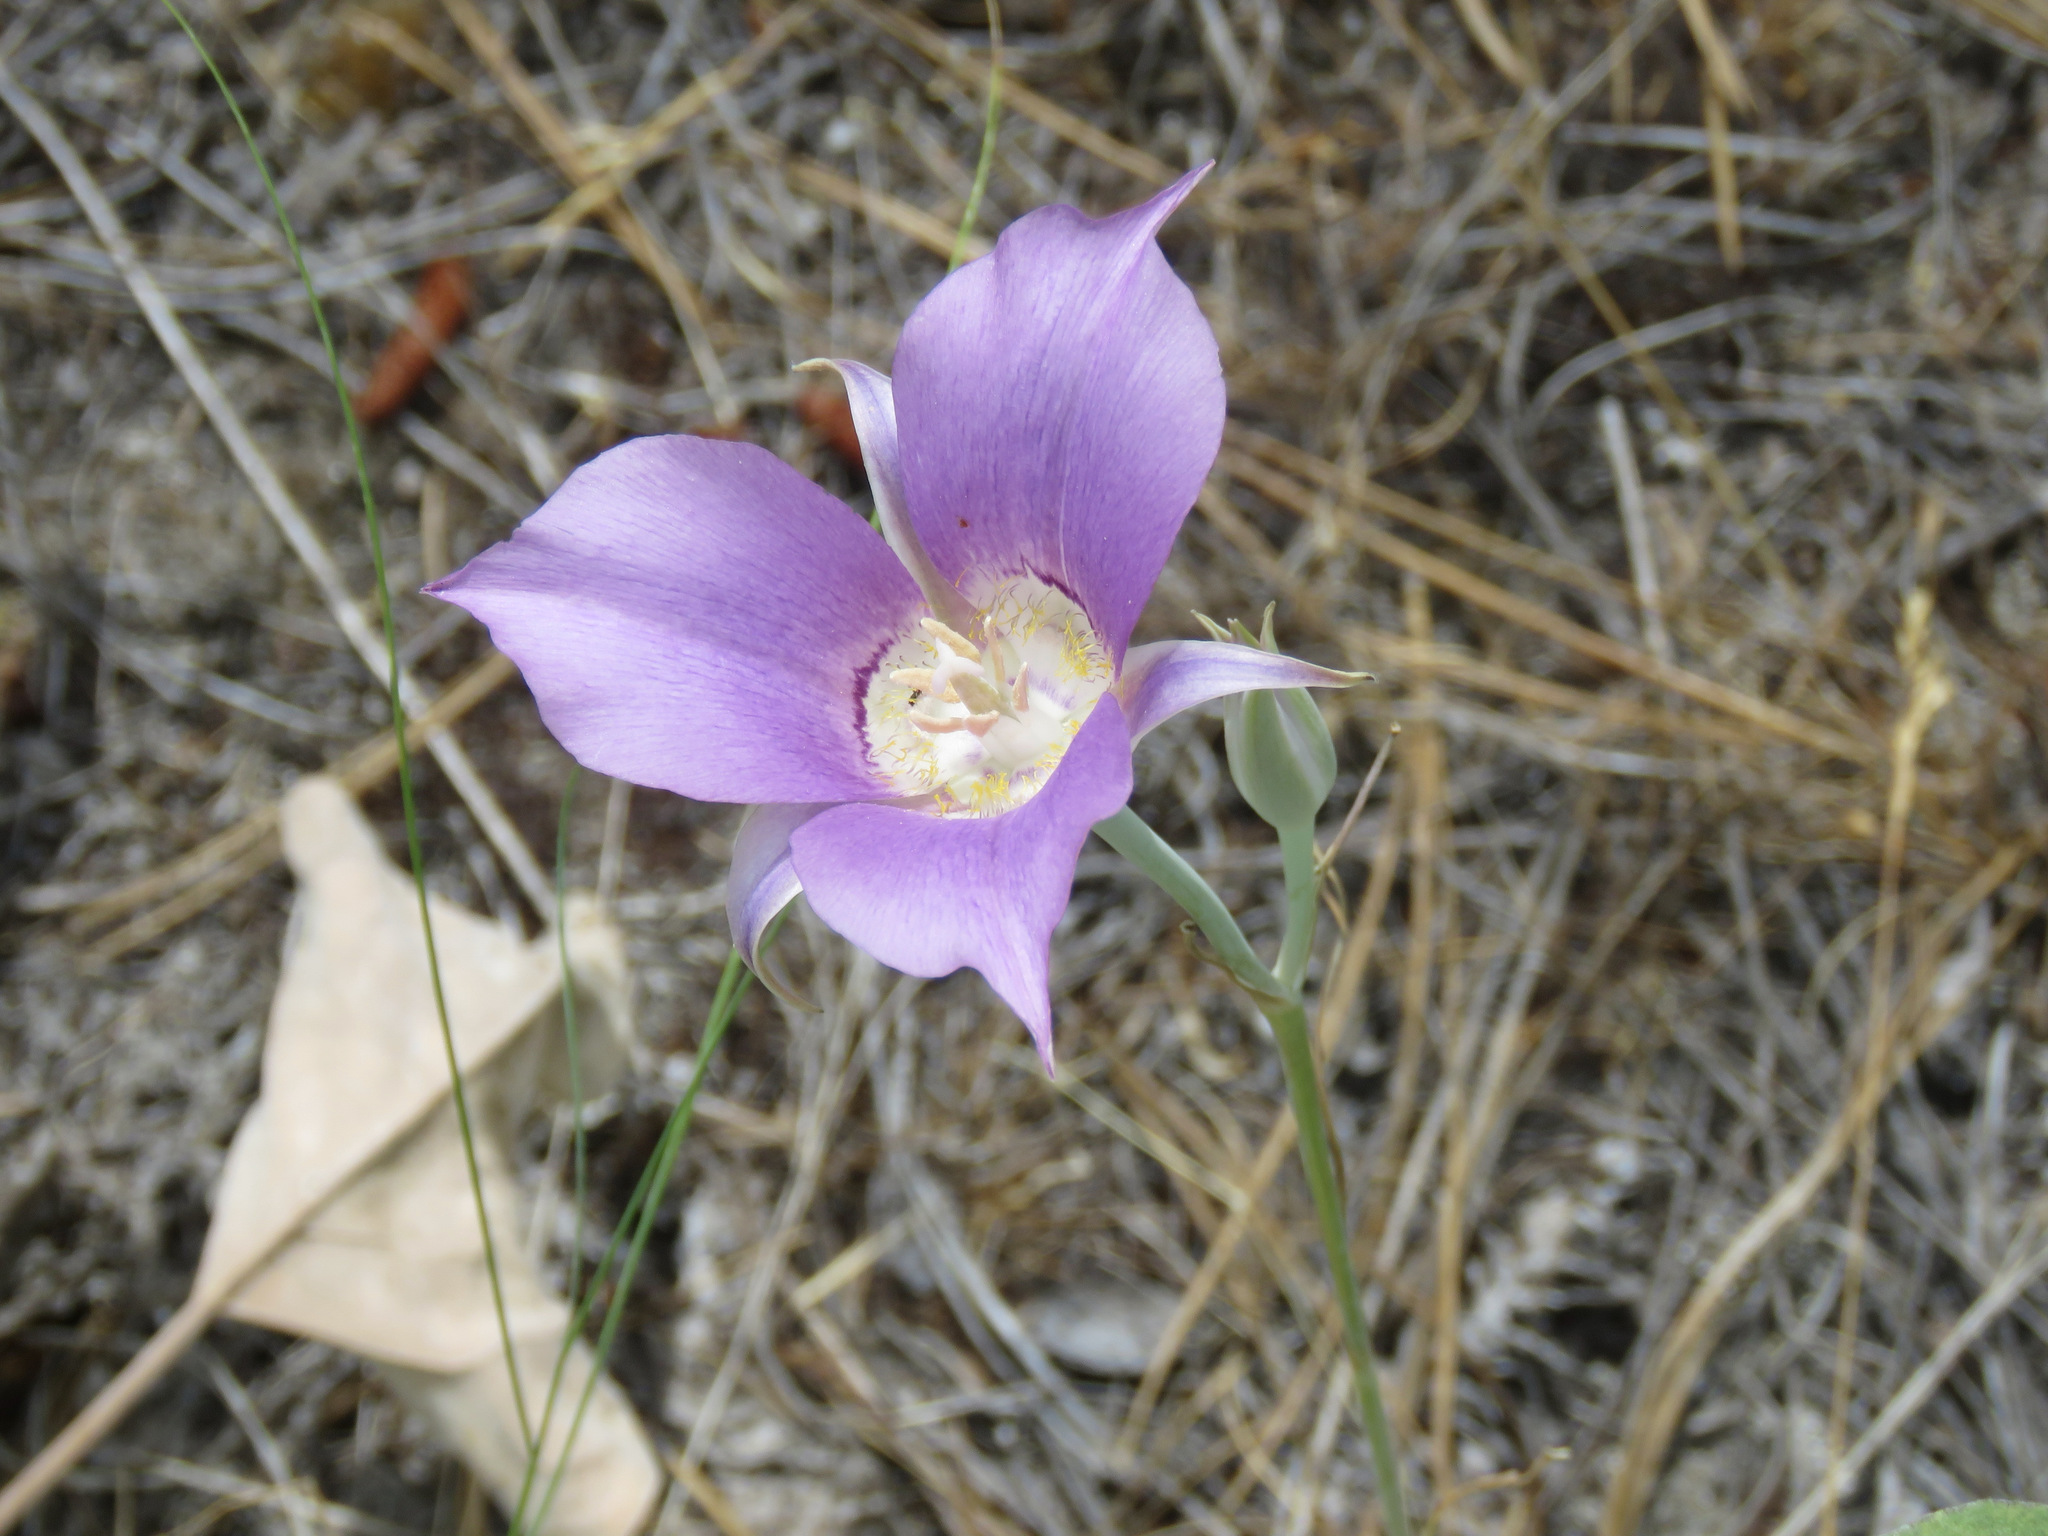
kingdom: Plantae
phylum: Tracheophyta
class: Liliopsida
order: Liliales
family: Liliaceae
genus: Calochortus
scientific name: Calochortus macrocarpus
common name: Green-band mariposa lily
